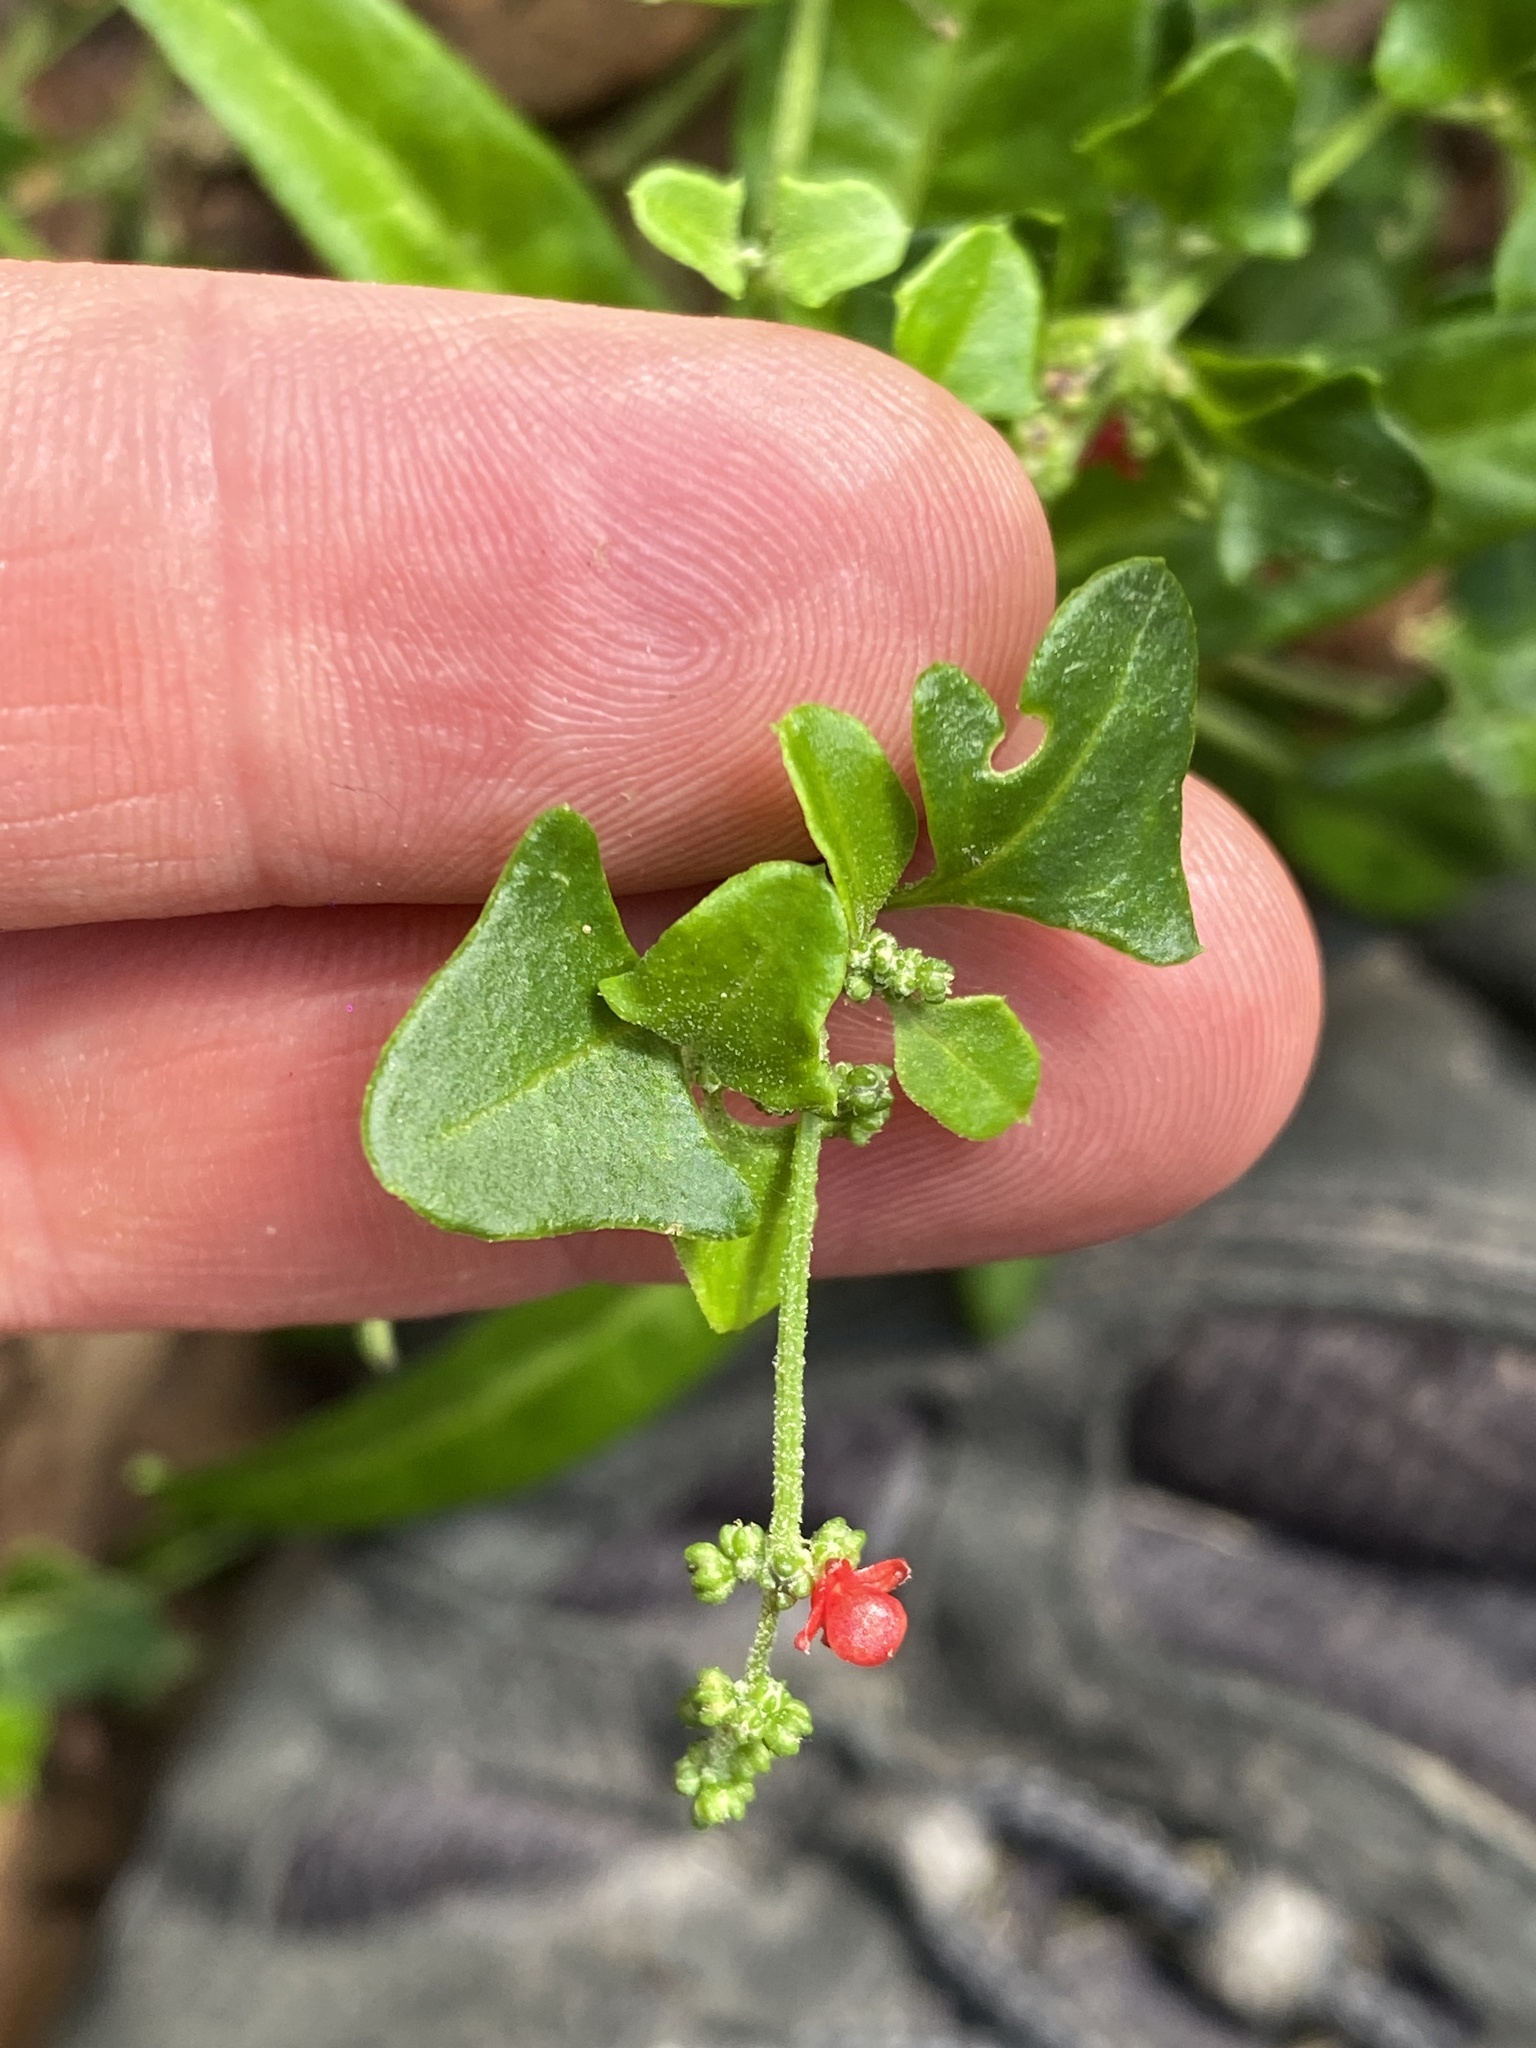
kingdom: Plantae
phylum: Tracheophyta
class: Magnoliopsida
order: Caryophyllales
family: Amaranthaceae
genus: Chenopodium
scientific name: Chenopodium robertianum
